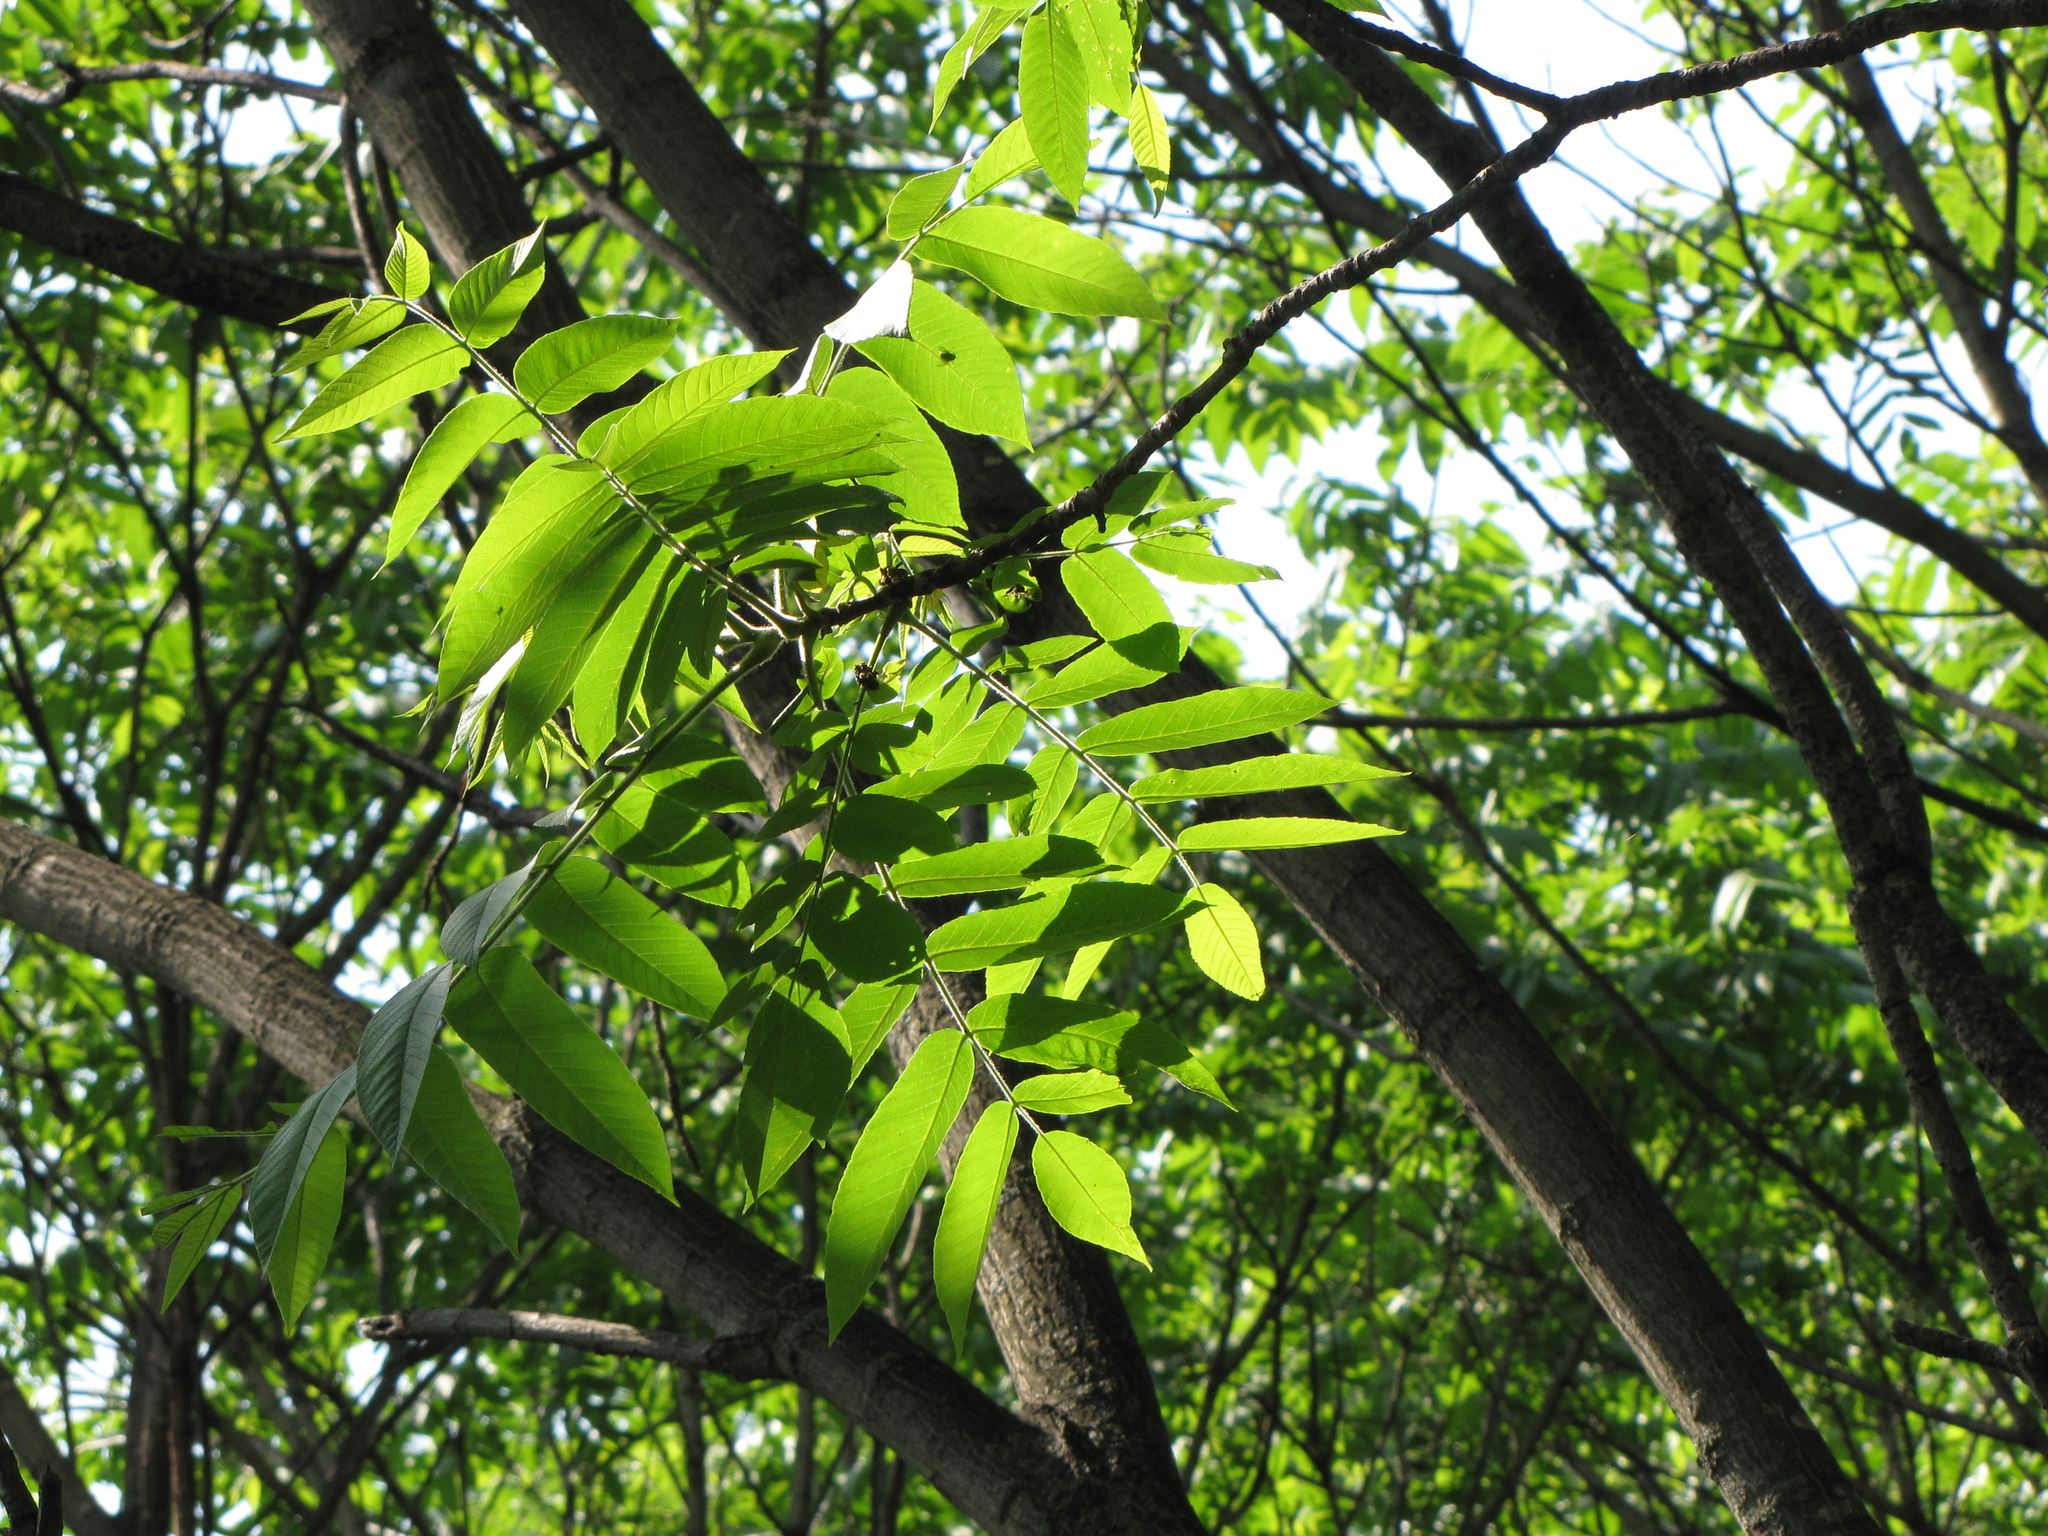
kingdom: Plantae
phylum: Tracheophyta
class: Magnoliopsida
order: Fagales
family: Juglandaceae
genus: Juglans
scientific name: Juglans mandshurica
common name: Manchurian walnut
